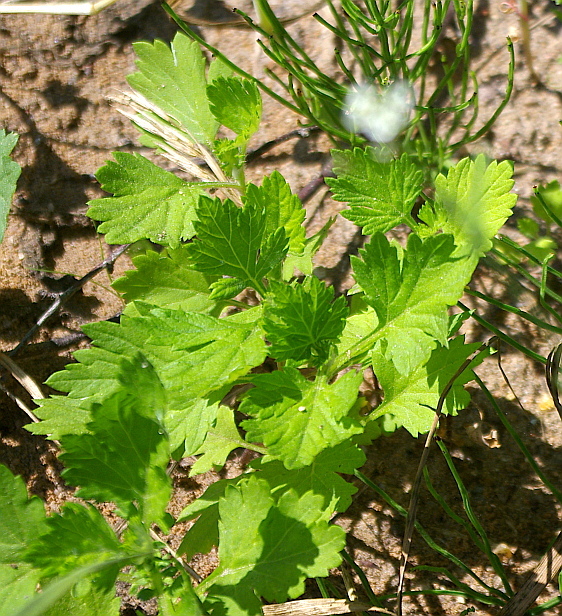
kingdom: Plantae
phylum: Tracheophyta
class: Magnoliopsida
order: Asterales
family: Asteraceae
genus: Artemisia
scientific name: Artemisia vulgaris
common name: Mugwort
